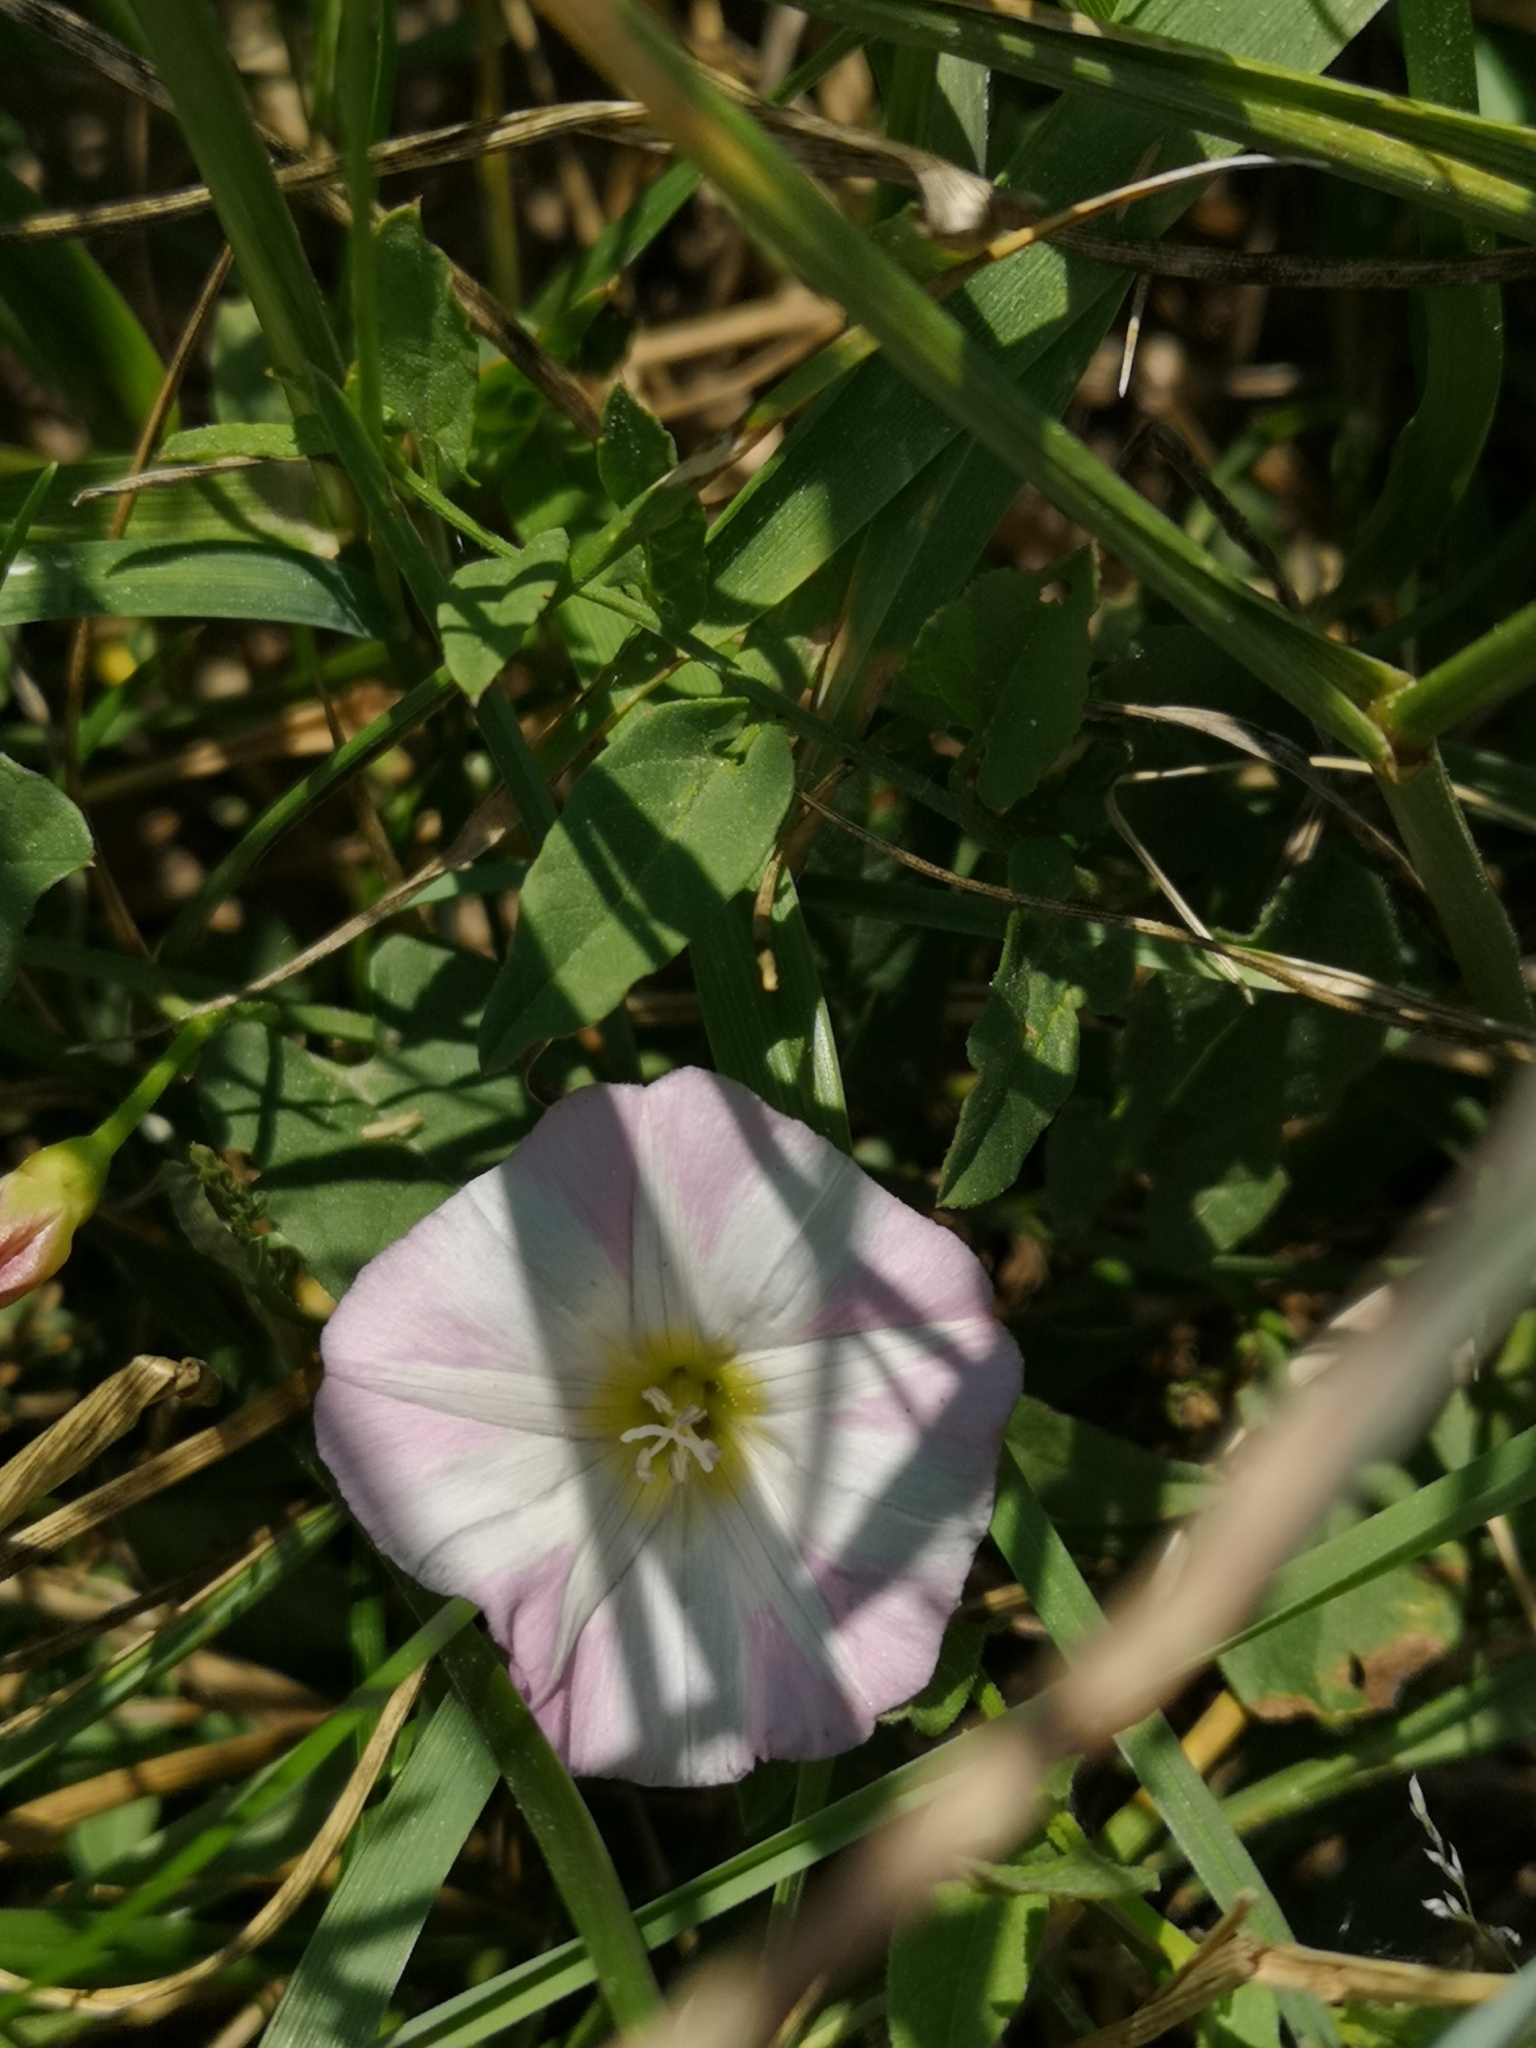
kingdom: Plantae
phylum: Tracheophyta
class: Magnoliopsida
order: Solanales
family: Convolvulaceae
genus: Convolvulus
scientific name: Convolvulus arvensis
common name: Field bindweed
